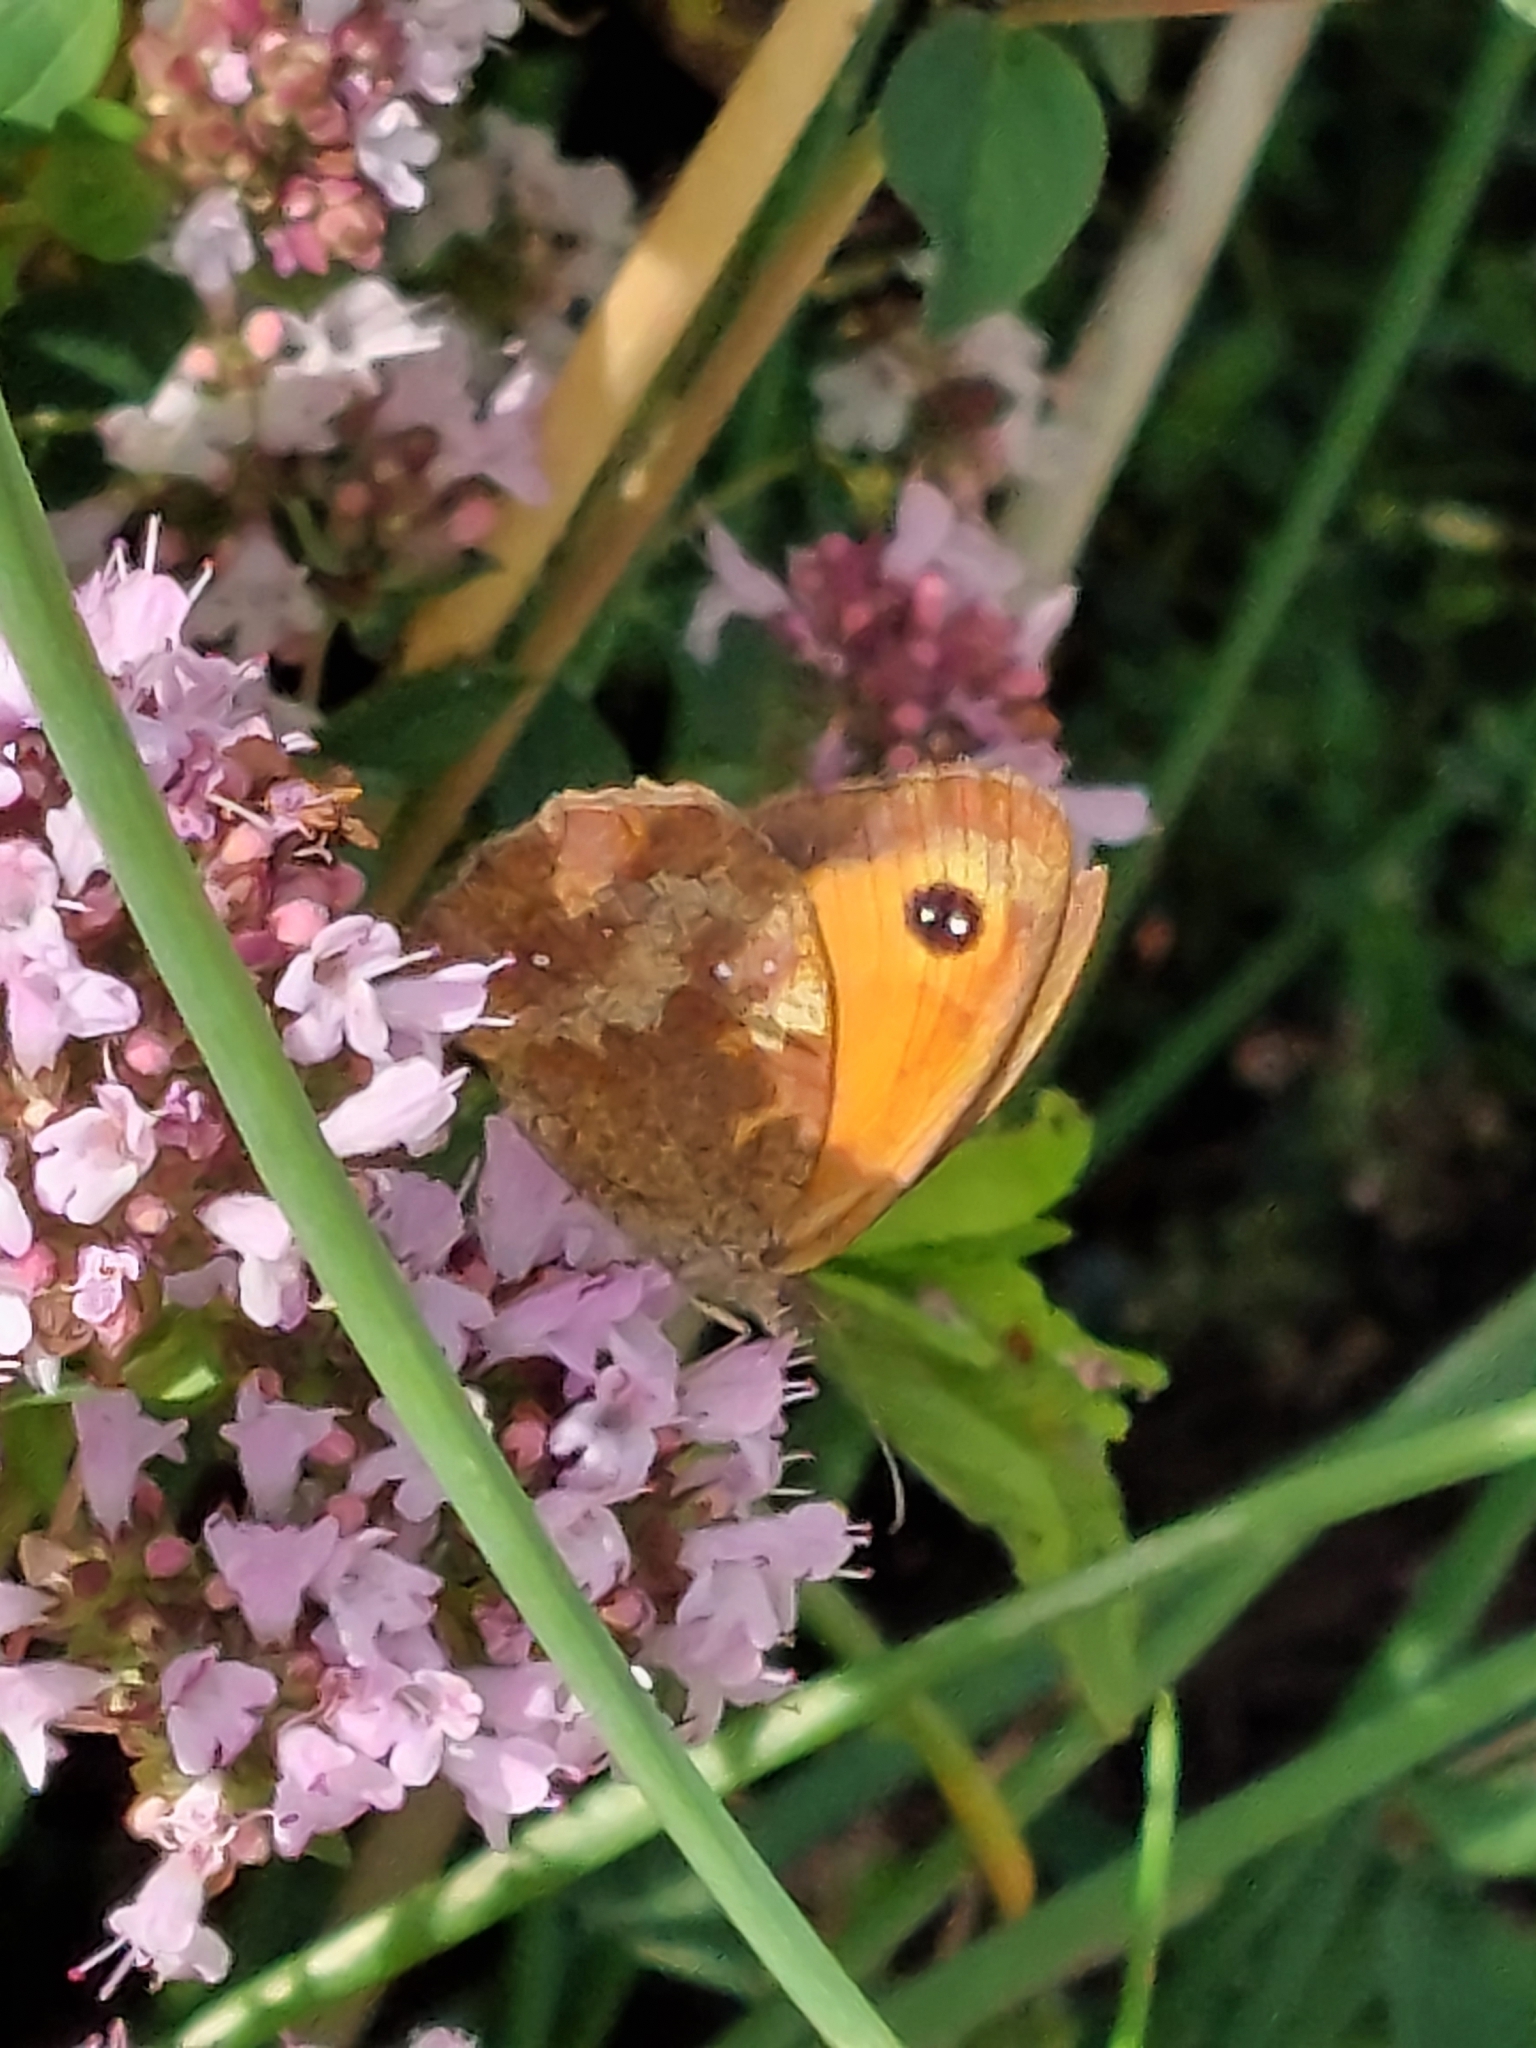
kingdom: Animalia
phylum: Arthropoda
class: Insecta
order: Lepidoptera
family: Nymphalidae
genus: Pyronia
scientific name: Pyronia tithonus
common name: Gatekeeper
